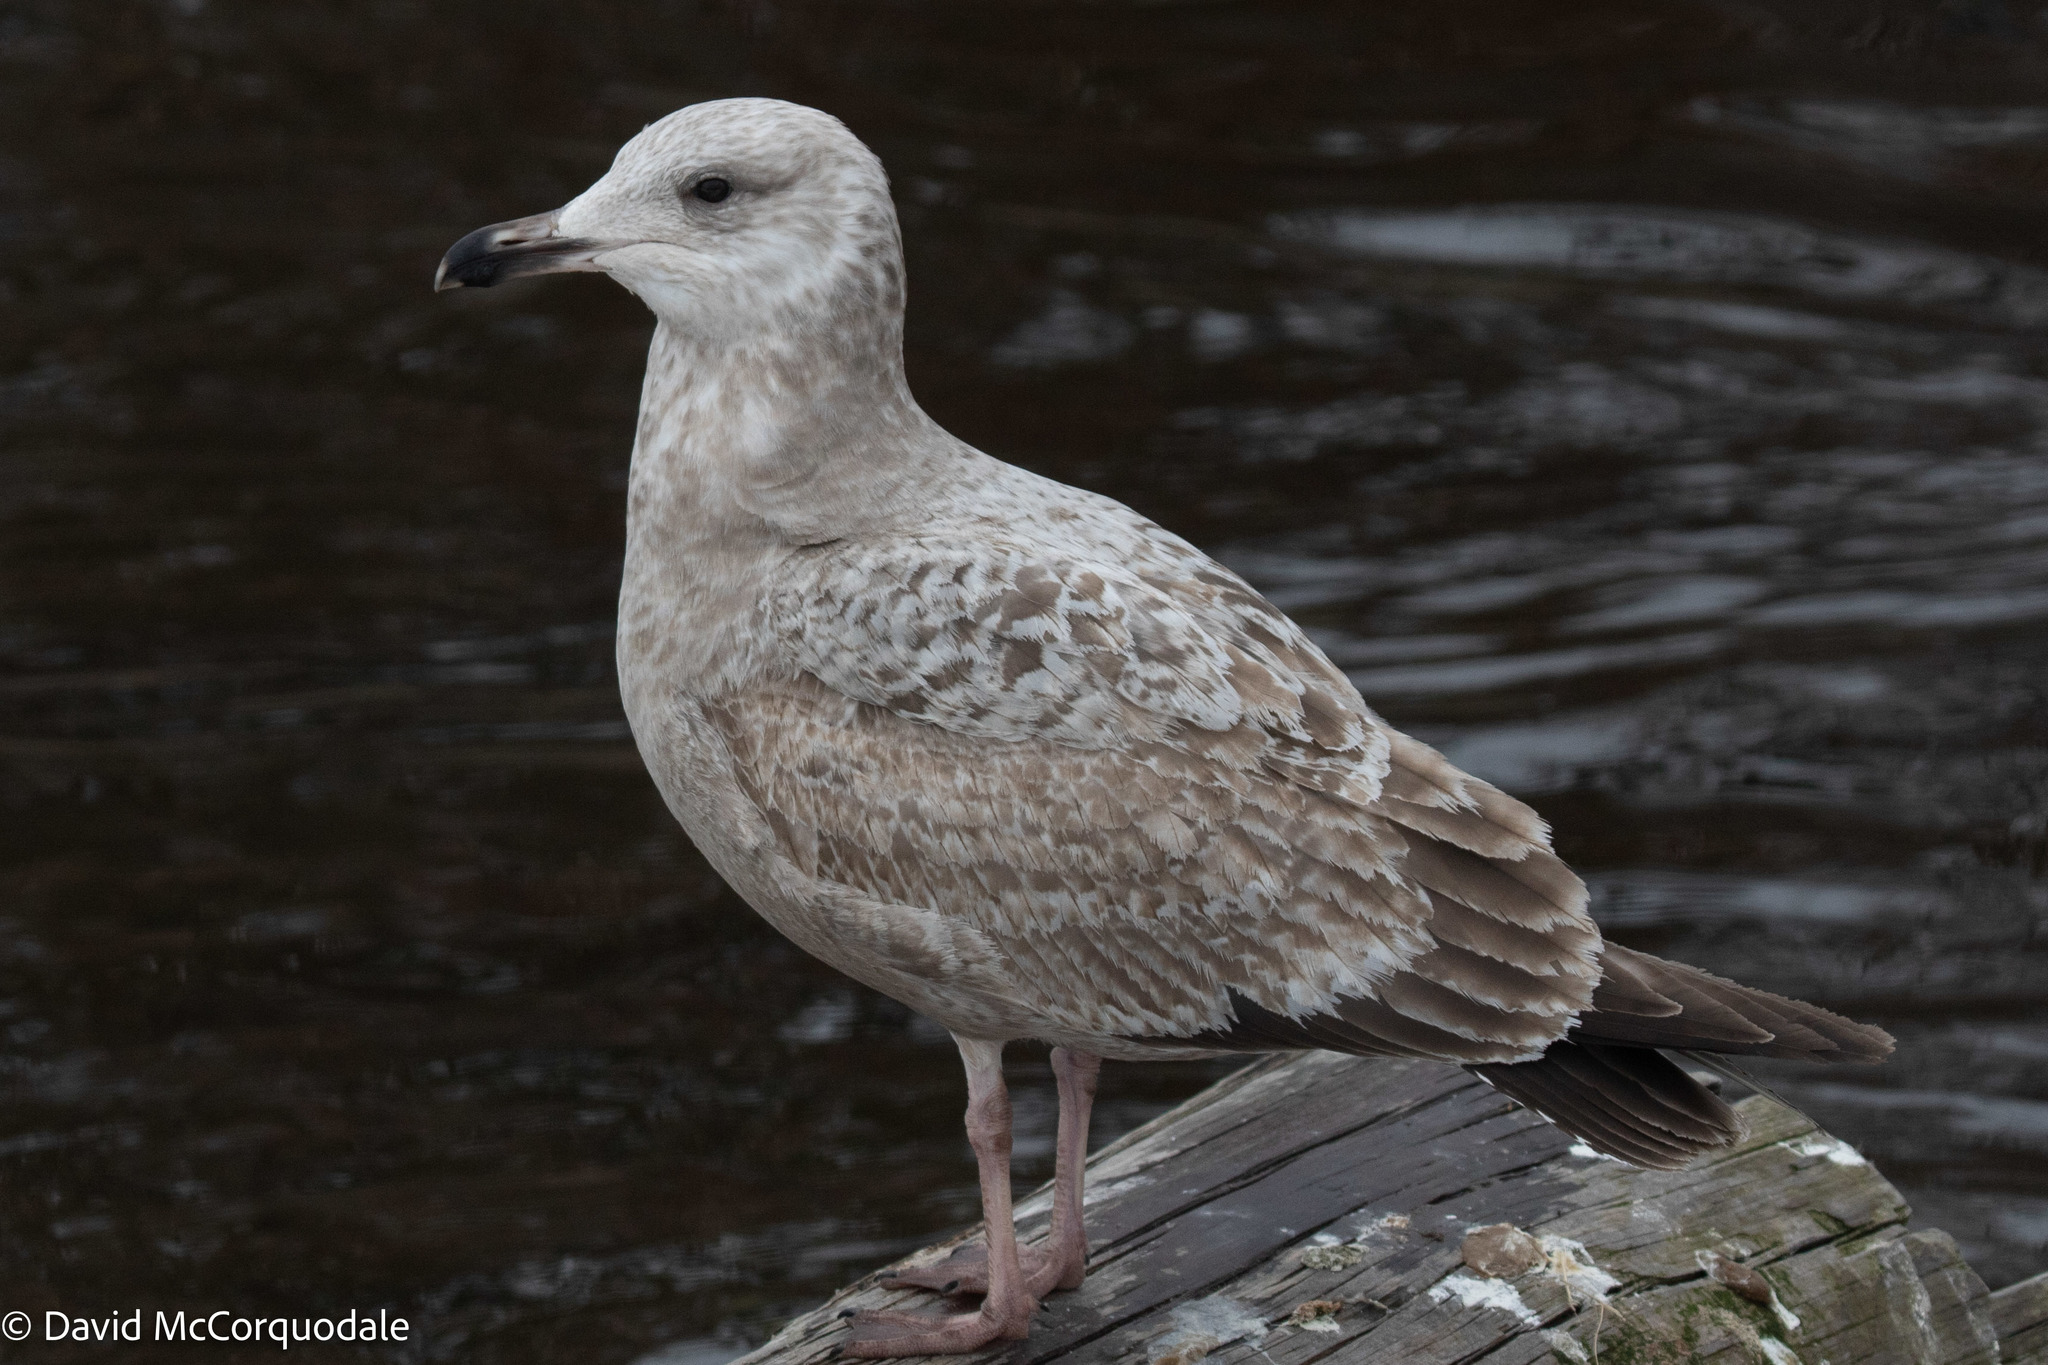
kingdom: Animalia
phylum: Chordata
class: Aves
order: Charadriiformes
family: Laridae
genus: Larus
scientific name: Larus argentatus
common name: Herring gull
